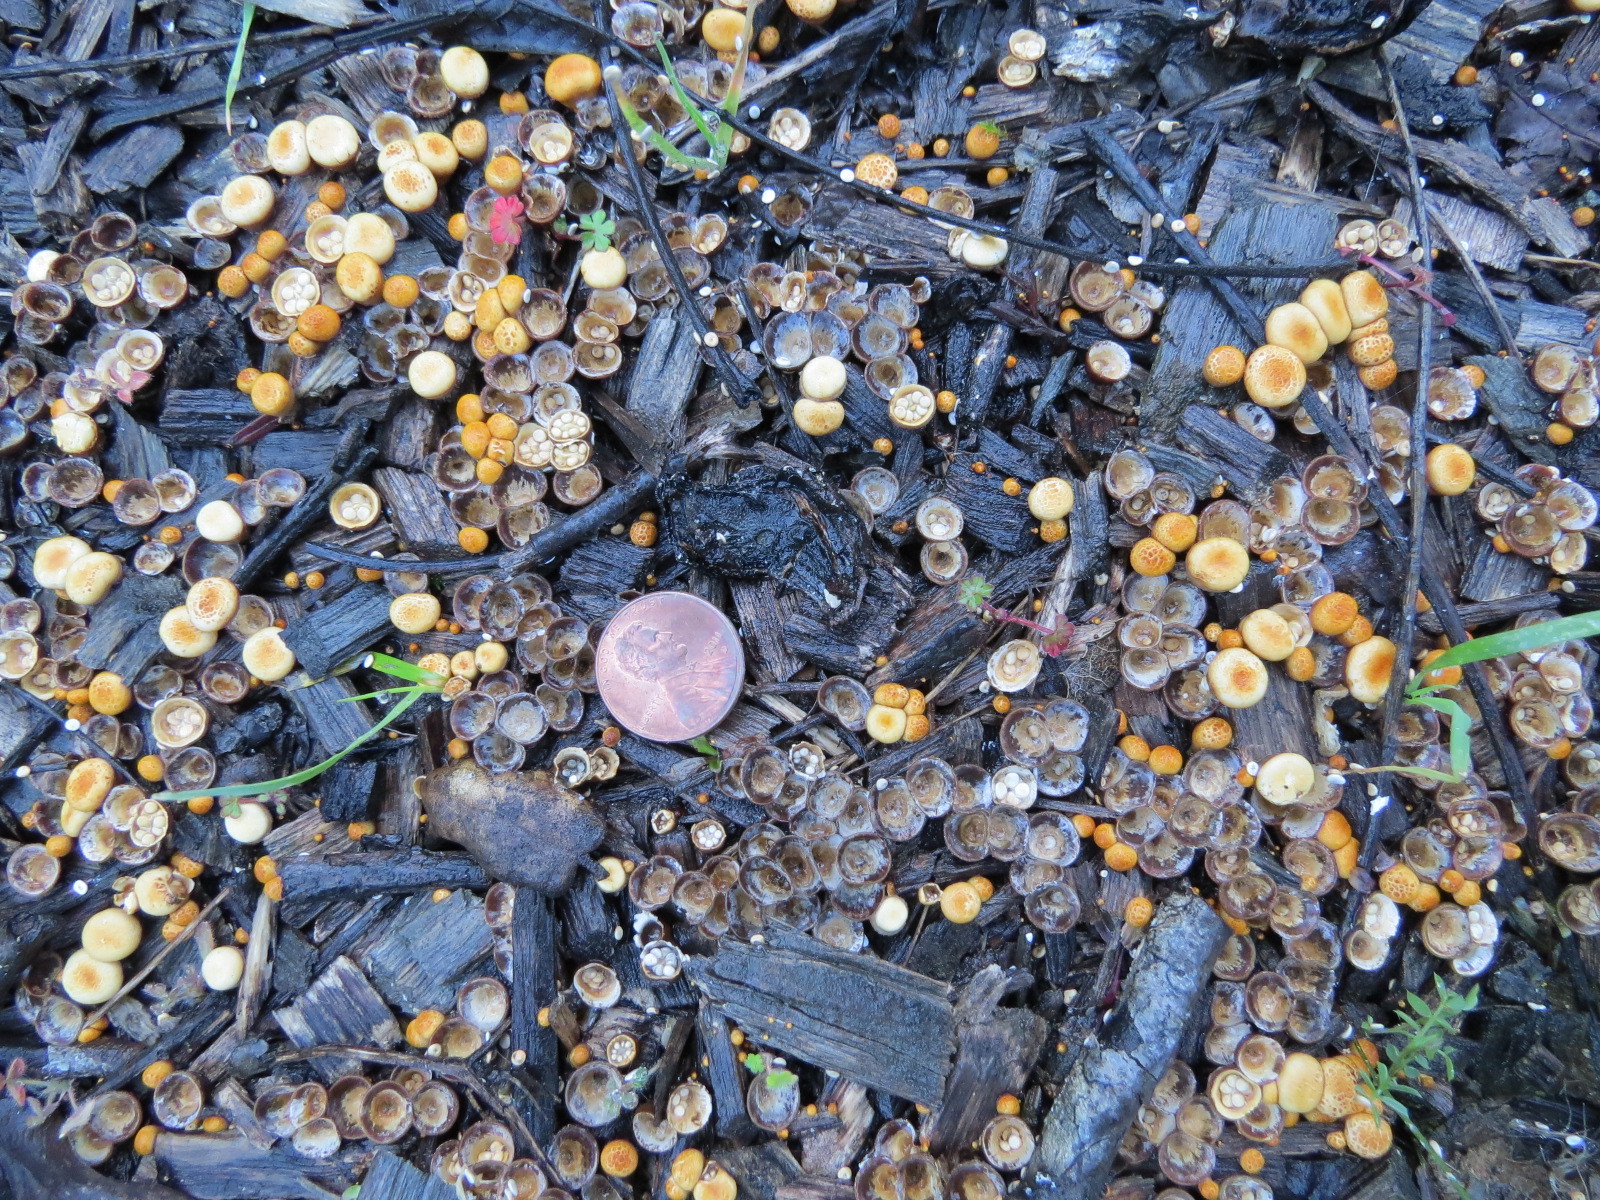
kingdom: Fungi
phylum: Basidiomycota
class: Agaricomycetes
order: Agaricales
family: Nidulariaceae
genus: Crucibulum
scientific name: Crucibulum laeve
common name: Common bird's nest
